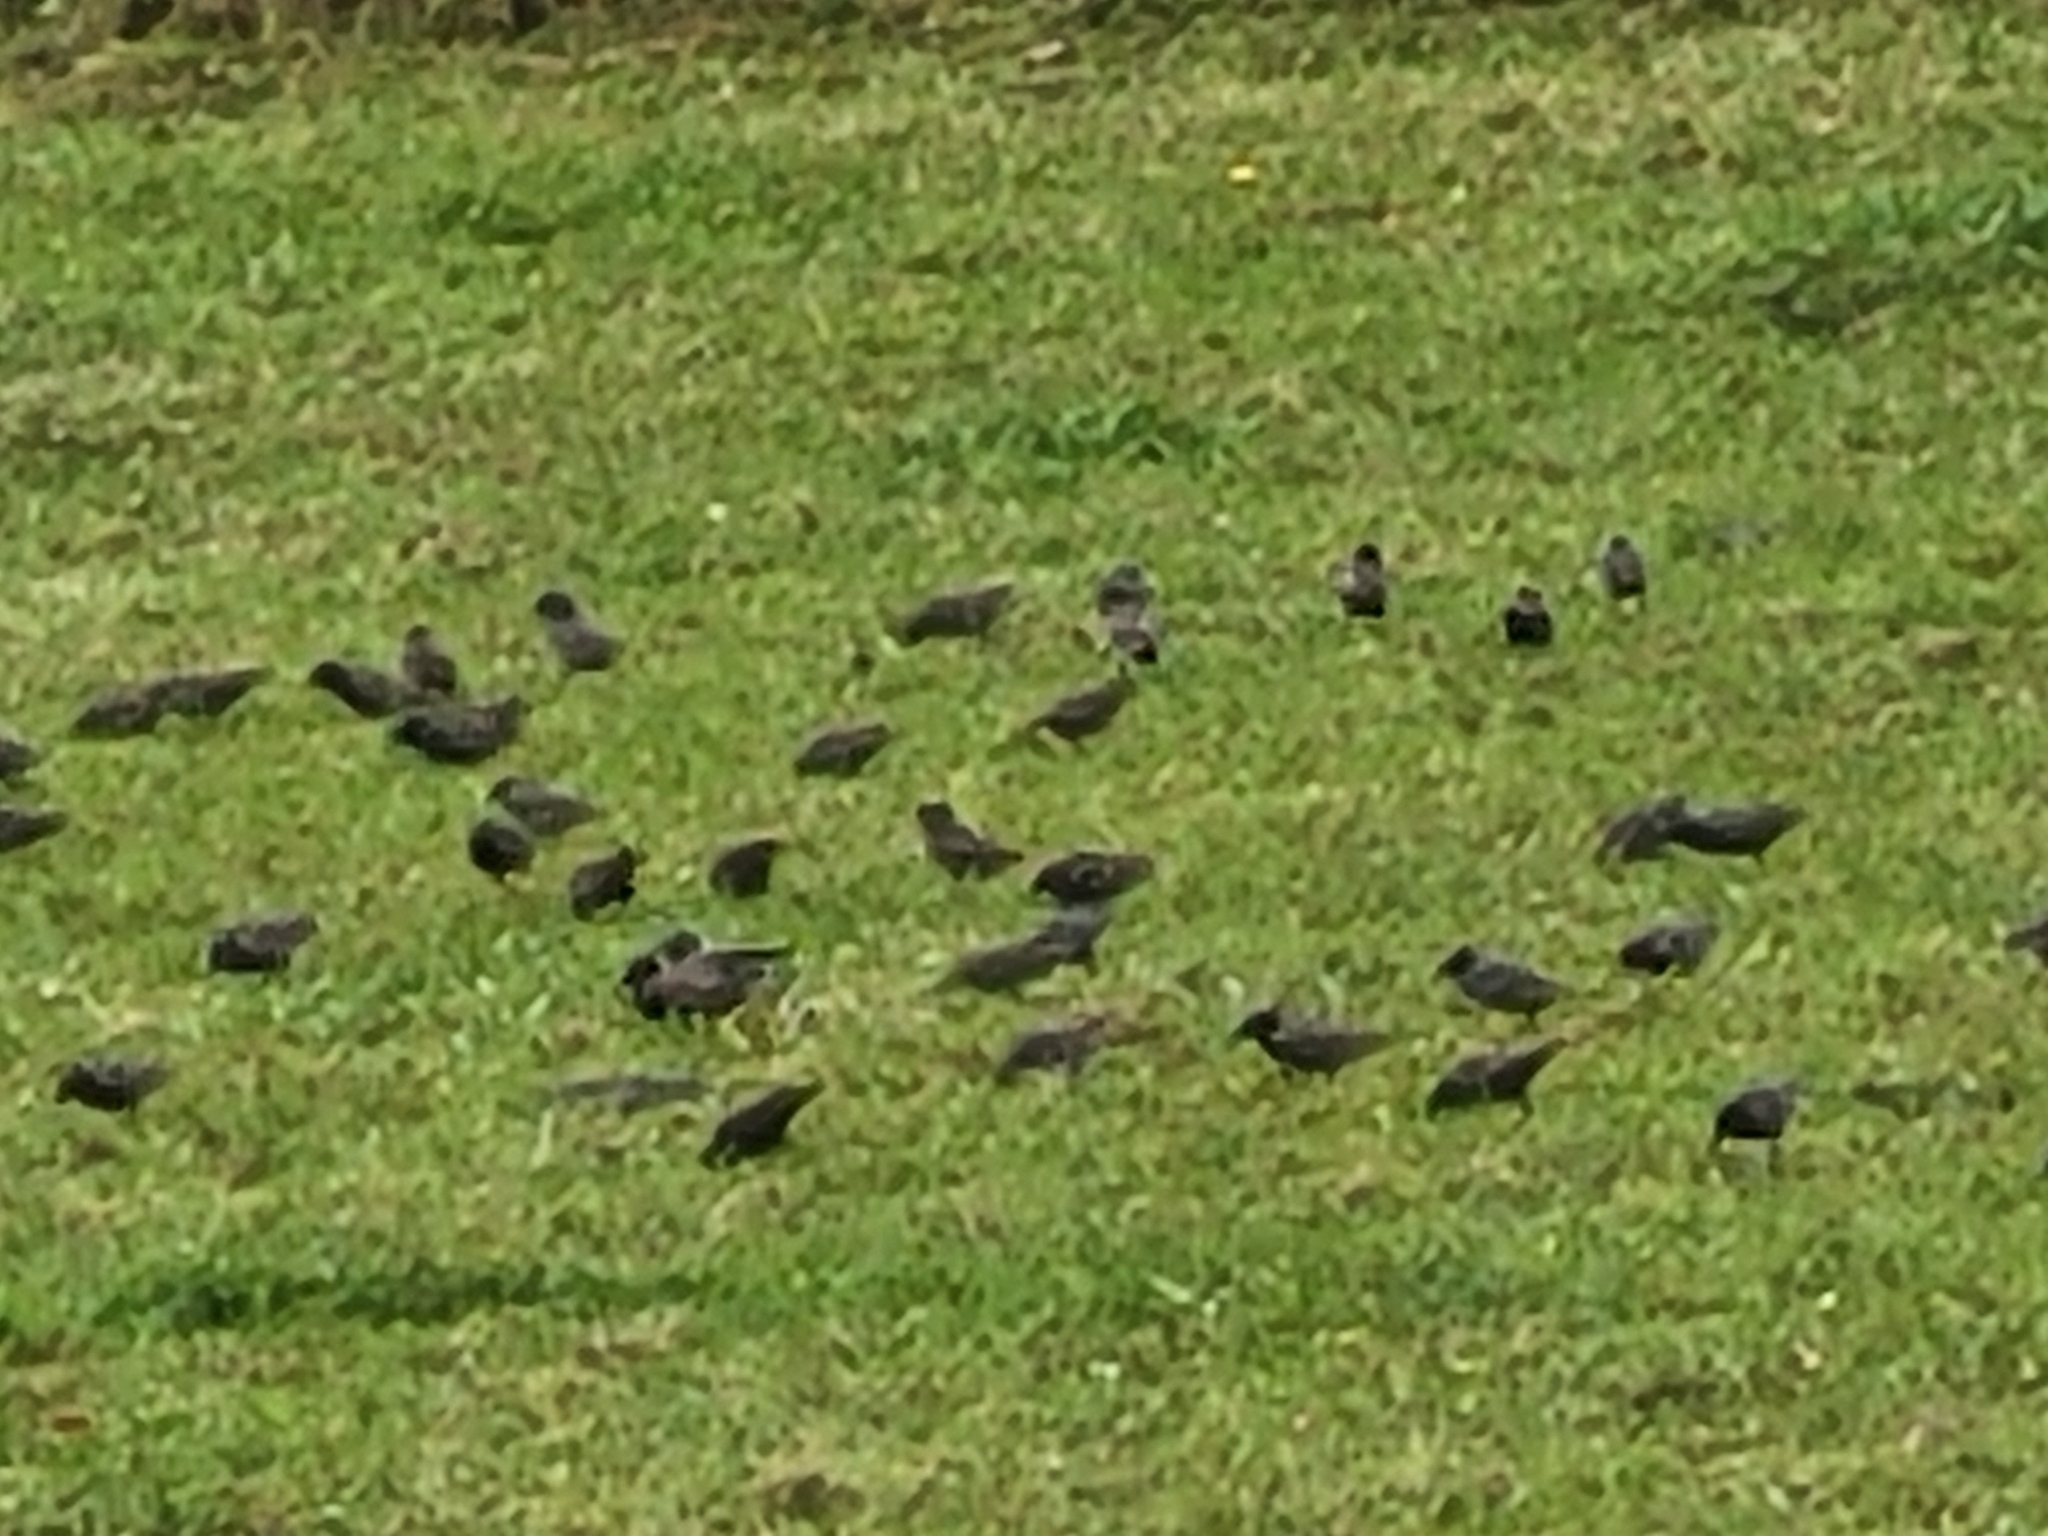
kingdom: Animalia
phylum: Chordata
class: Aves
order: Passeriformes
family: Sturnidae
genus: Sturnus
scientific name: Sturnus vulgaris
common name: Common starling
